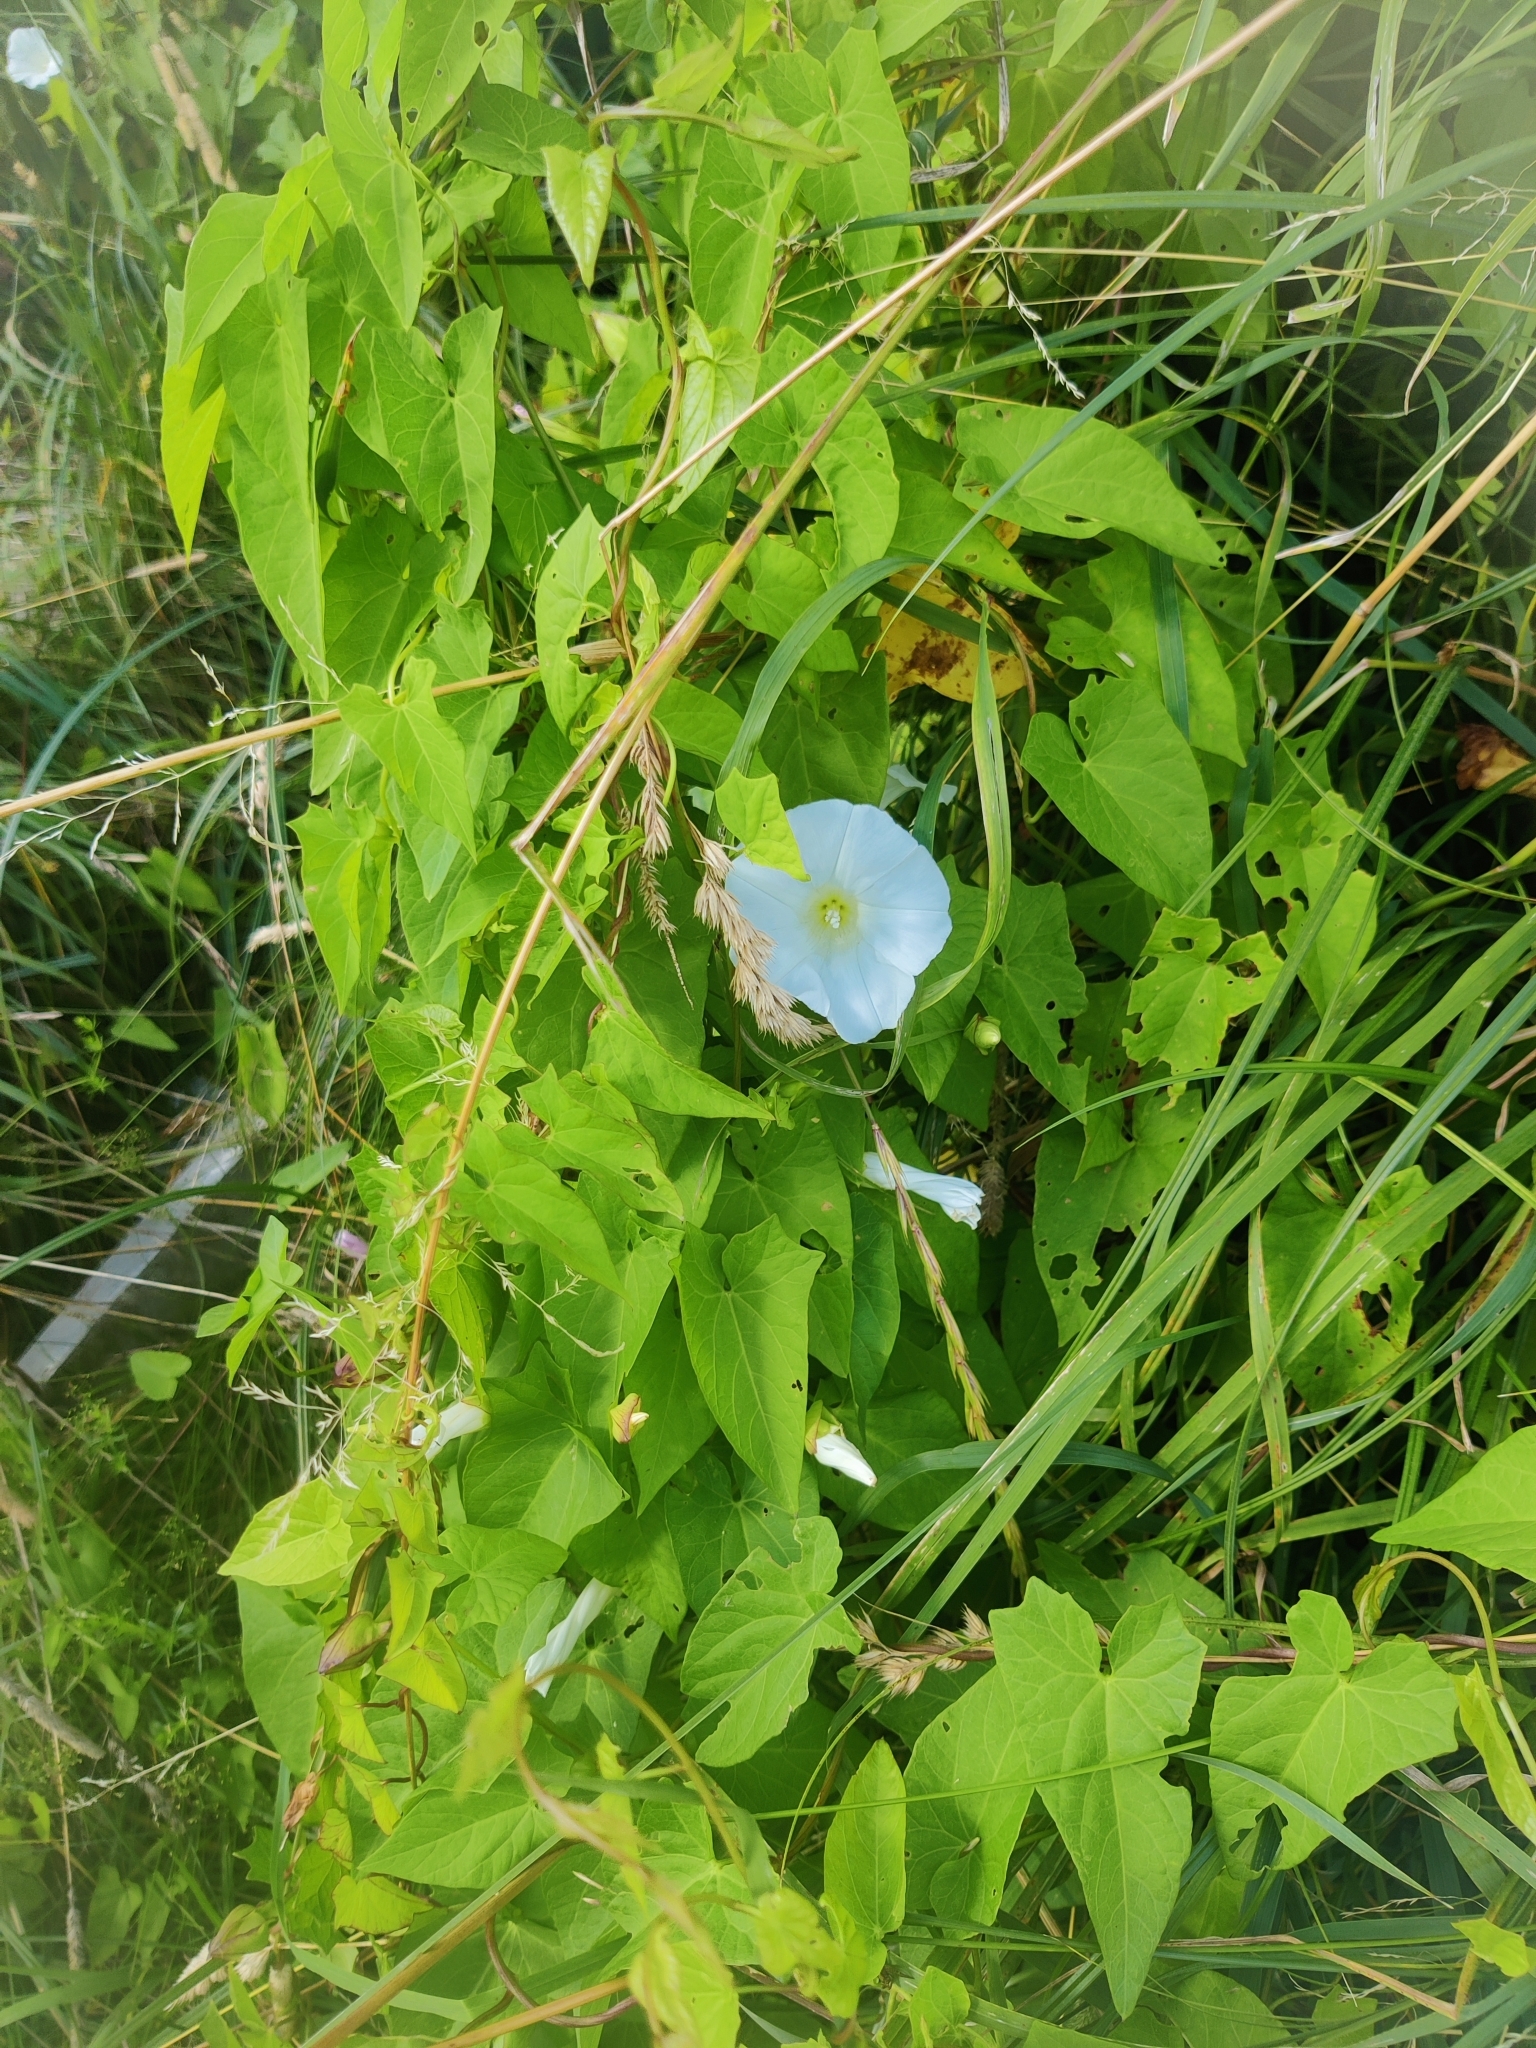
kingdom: Plantae
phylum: Tracheophyta
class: Magnoliopsida
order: Solanales
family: Convolvulaceae
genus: Calystegia
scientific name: Calystegia sepium
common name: Hedge bindweed
